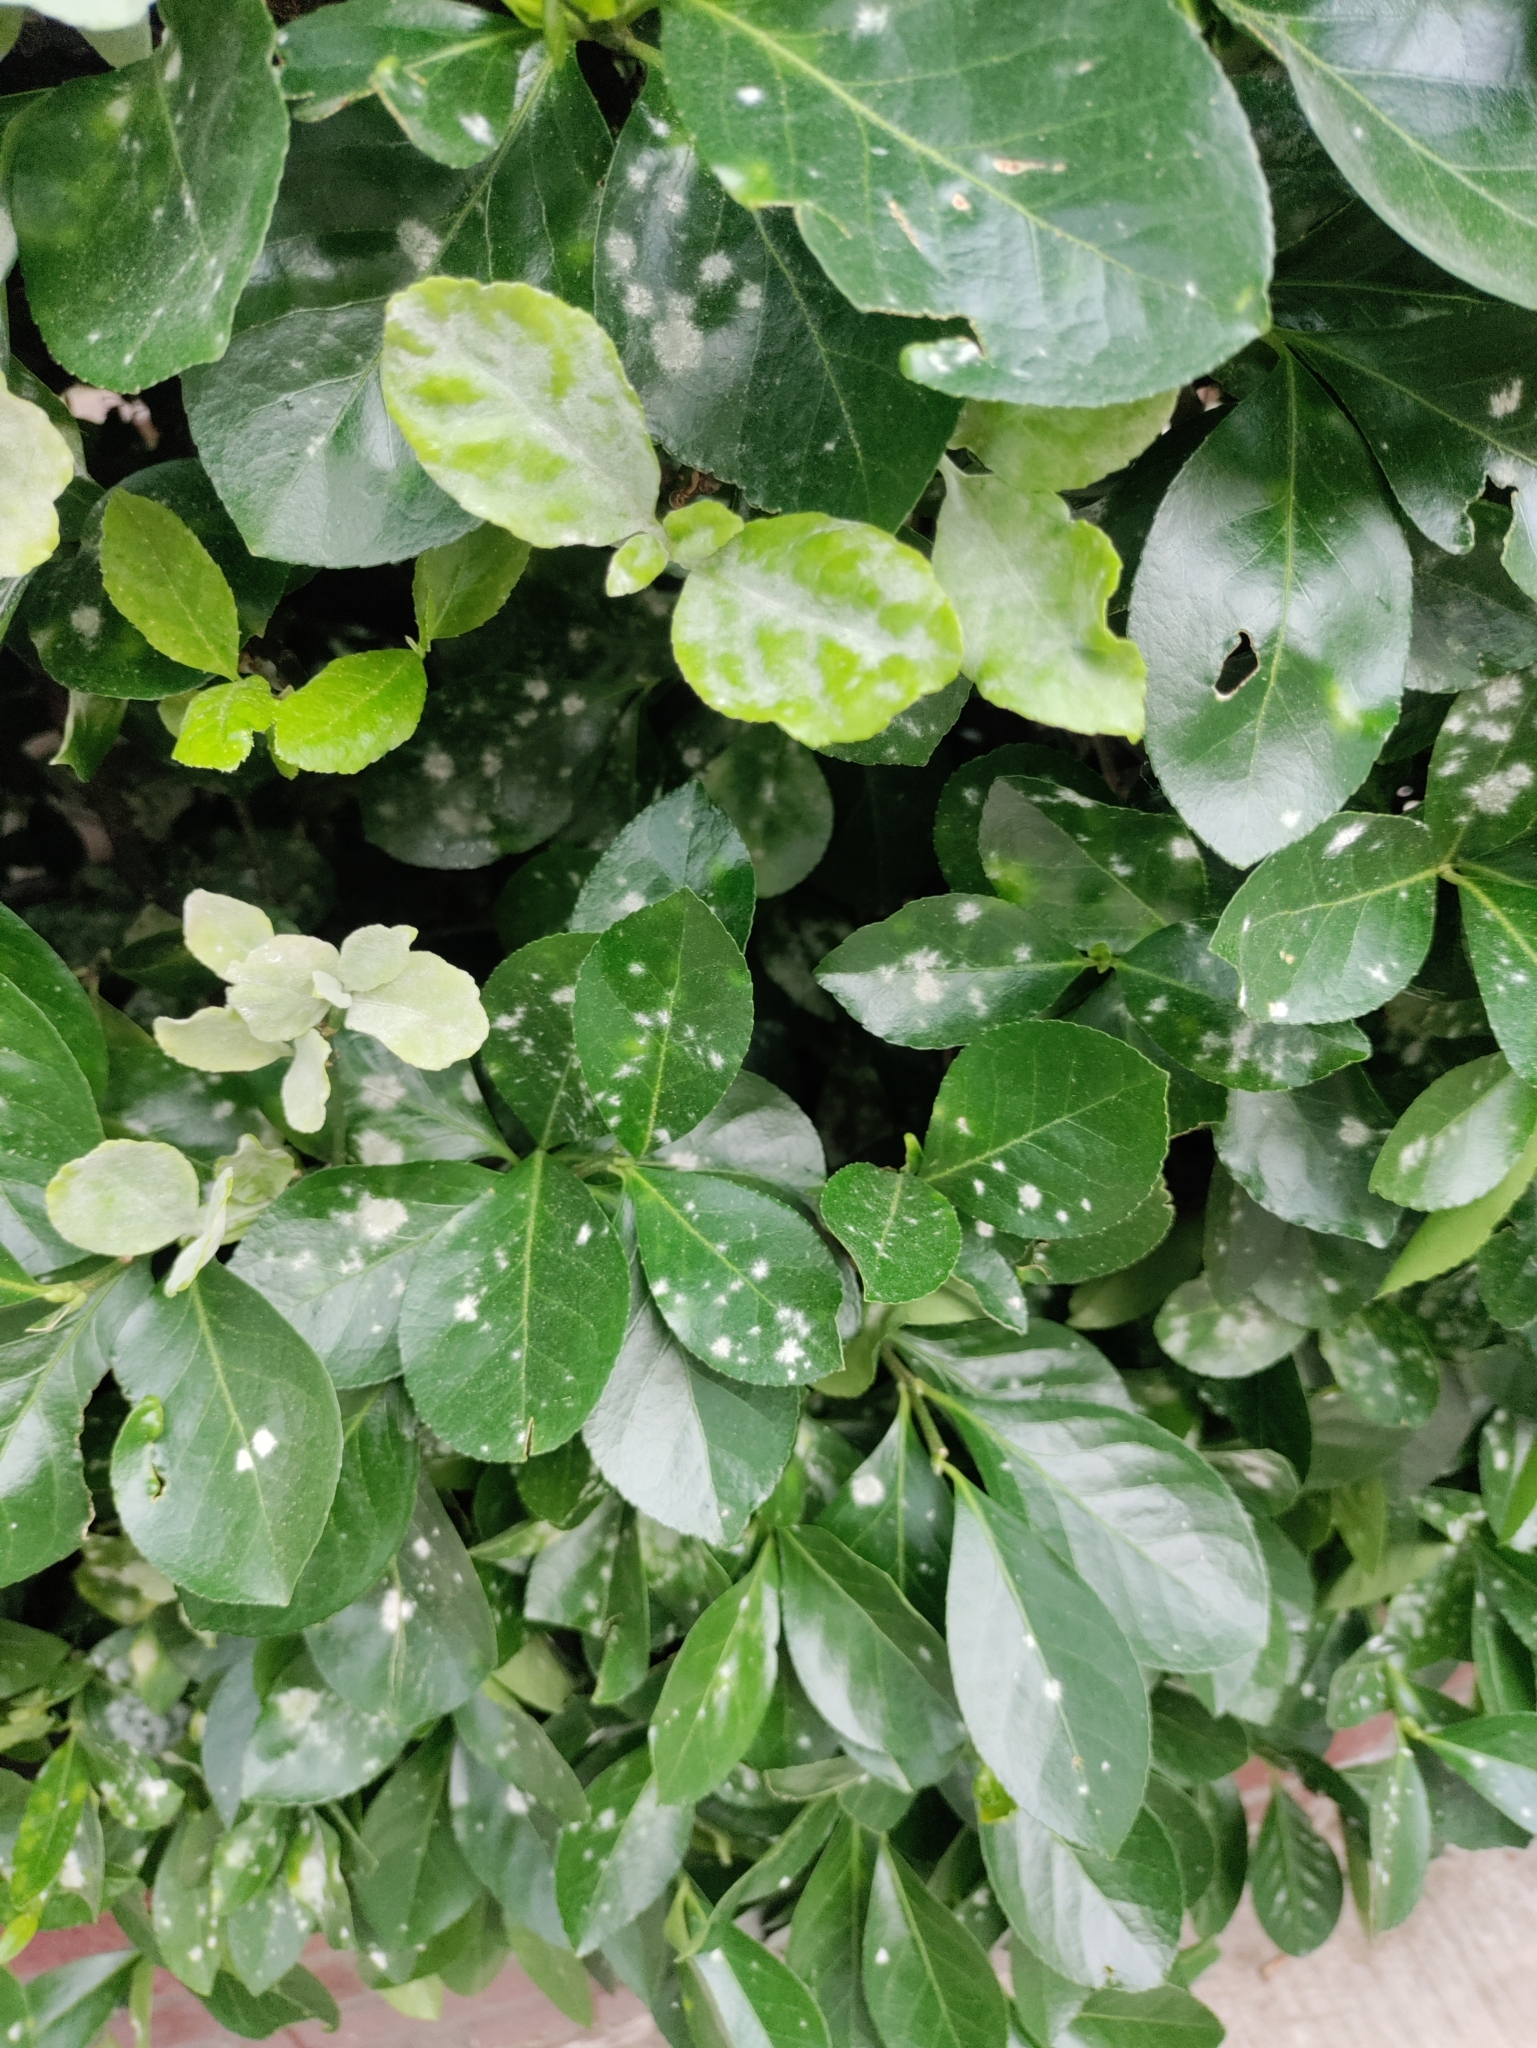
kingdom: Fungi
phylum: Ascomycota
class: Leotiomycetes
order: Helotiales
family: Erysiphaceae
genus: Erysiphe
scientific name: Erysiphe euonymicola
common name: Spindletree mildew
